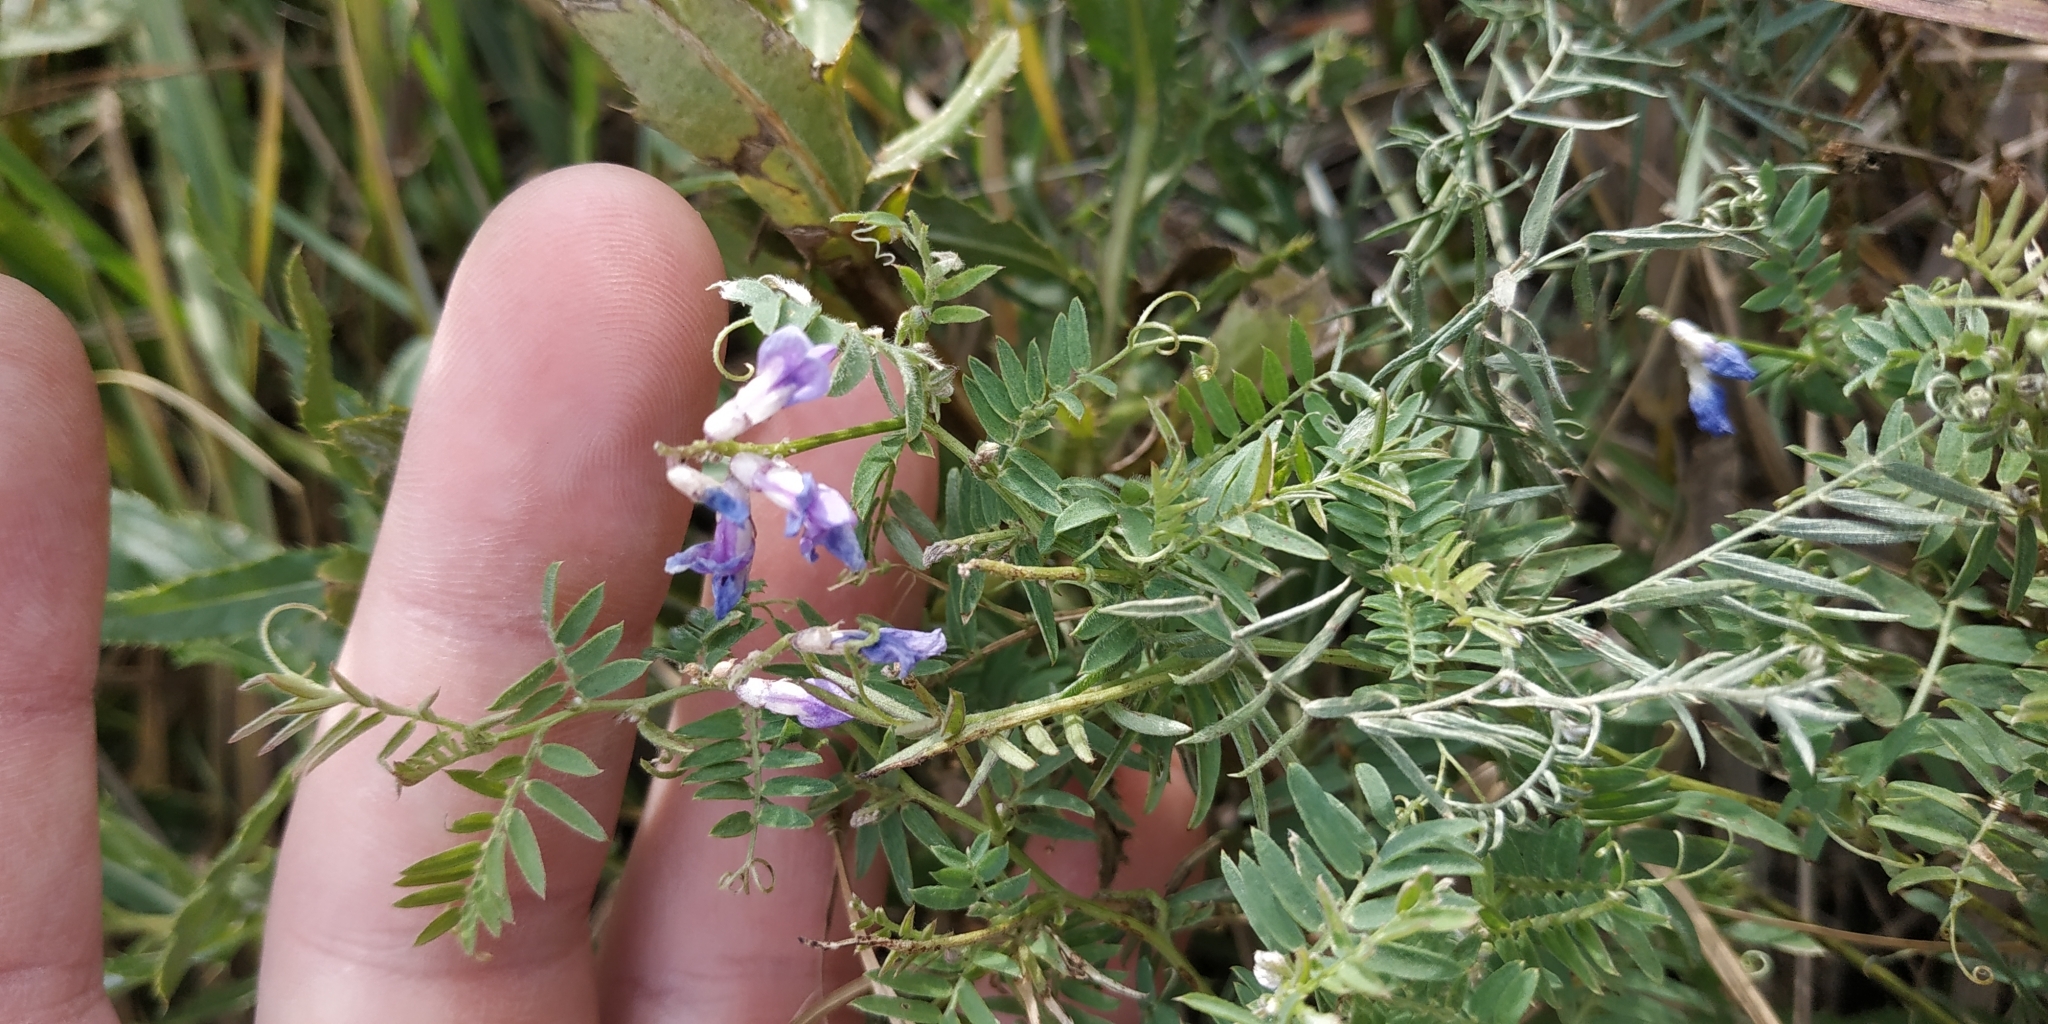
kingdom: Plantae
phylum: Tracheophyta
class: Magnoliopsida
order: Fabales
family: Fabaceae
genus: Vicia
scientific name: Vicia cracca
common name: Bird vetch
